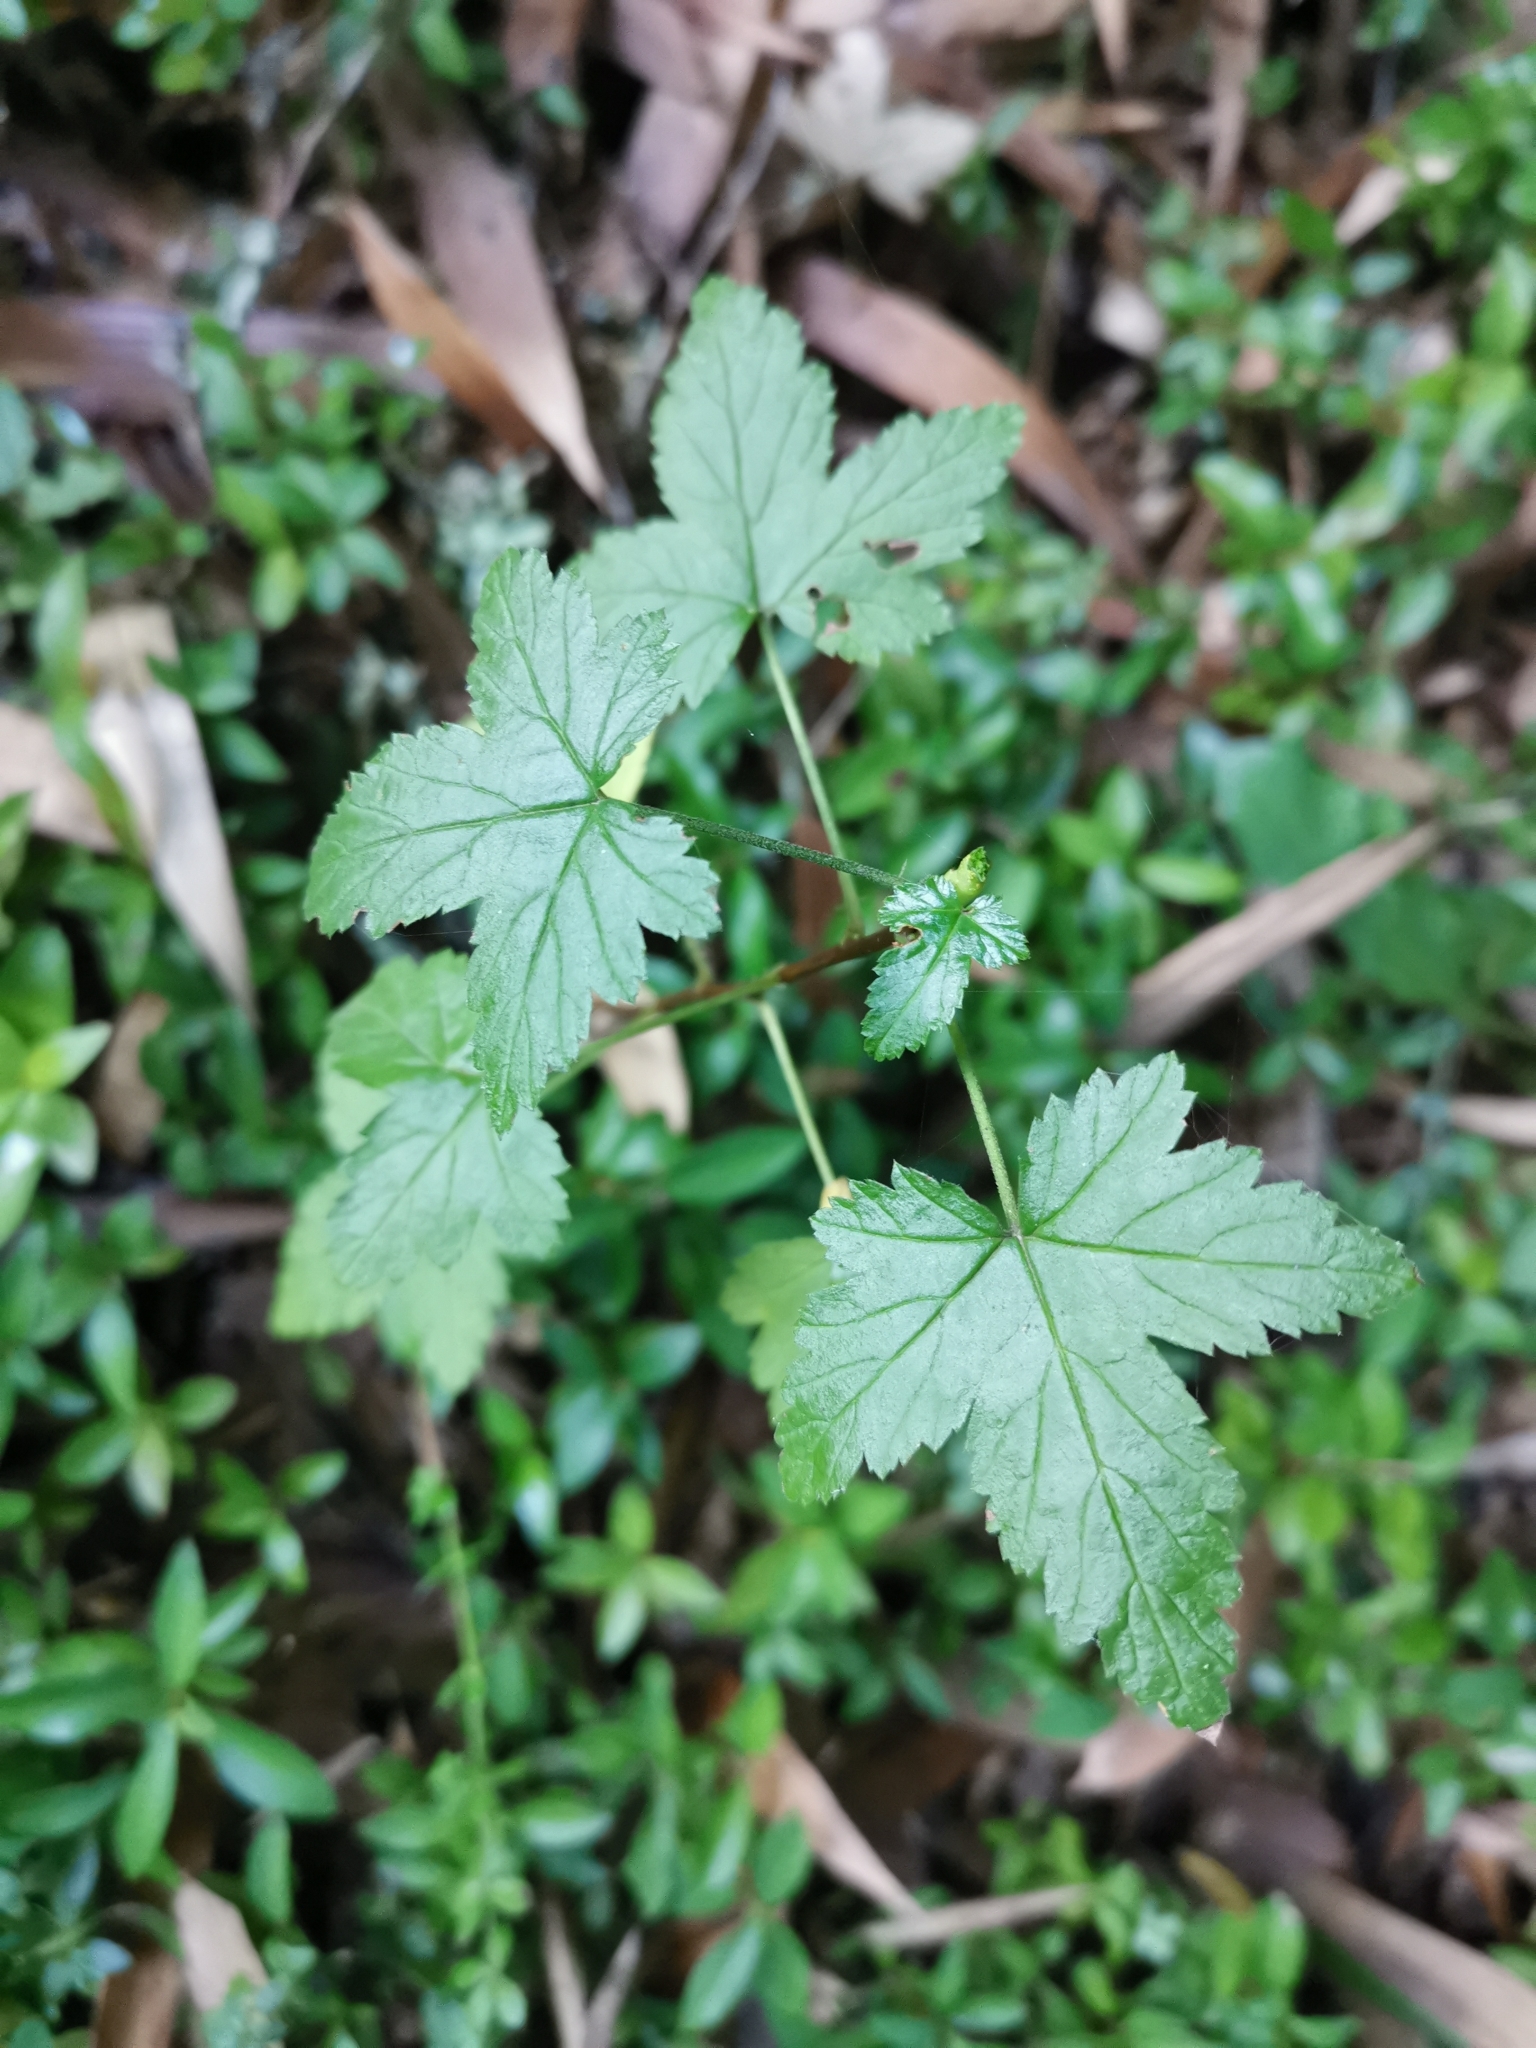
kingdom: Plantae
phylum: Tracheophyta
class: Magnoliopsida
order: Saxifragales
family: Grossulariaceae
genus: Ribes
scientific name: Ribes magellanicum
